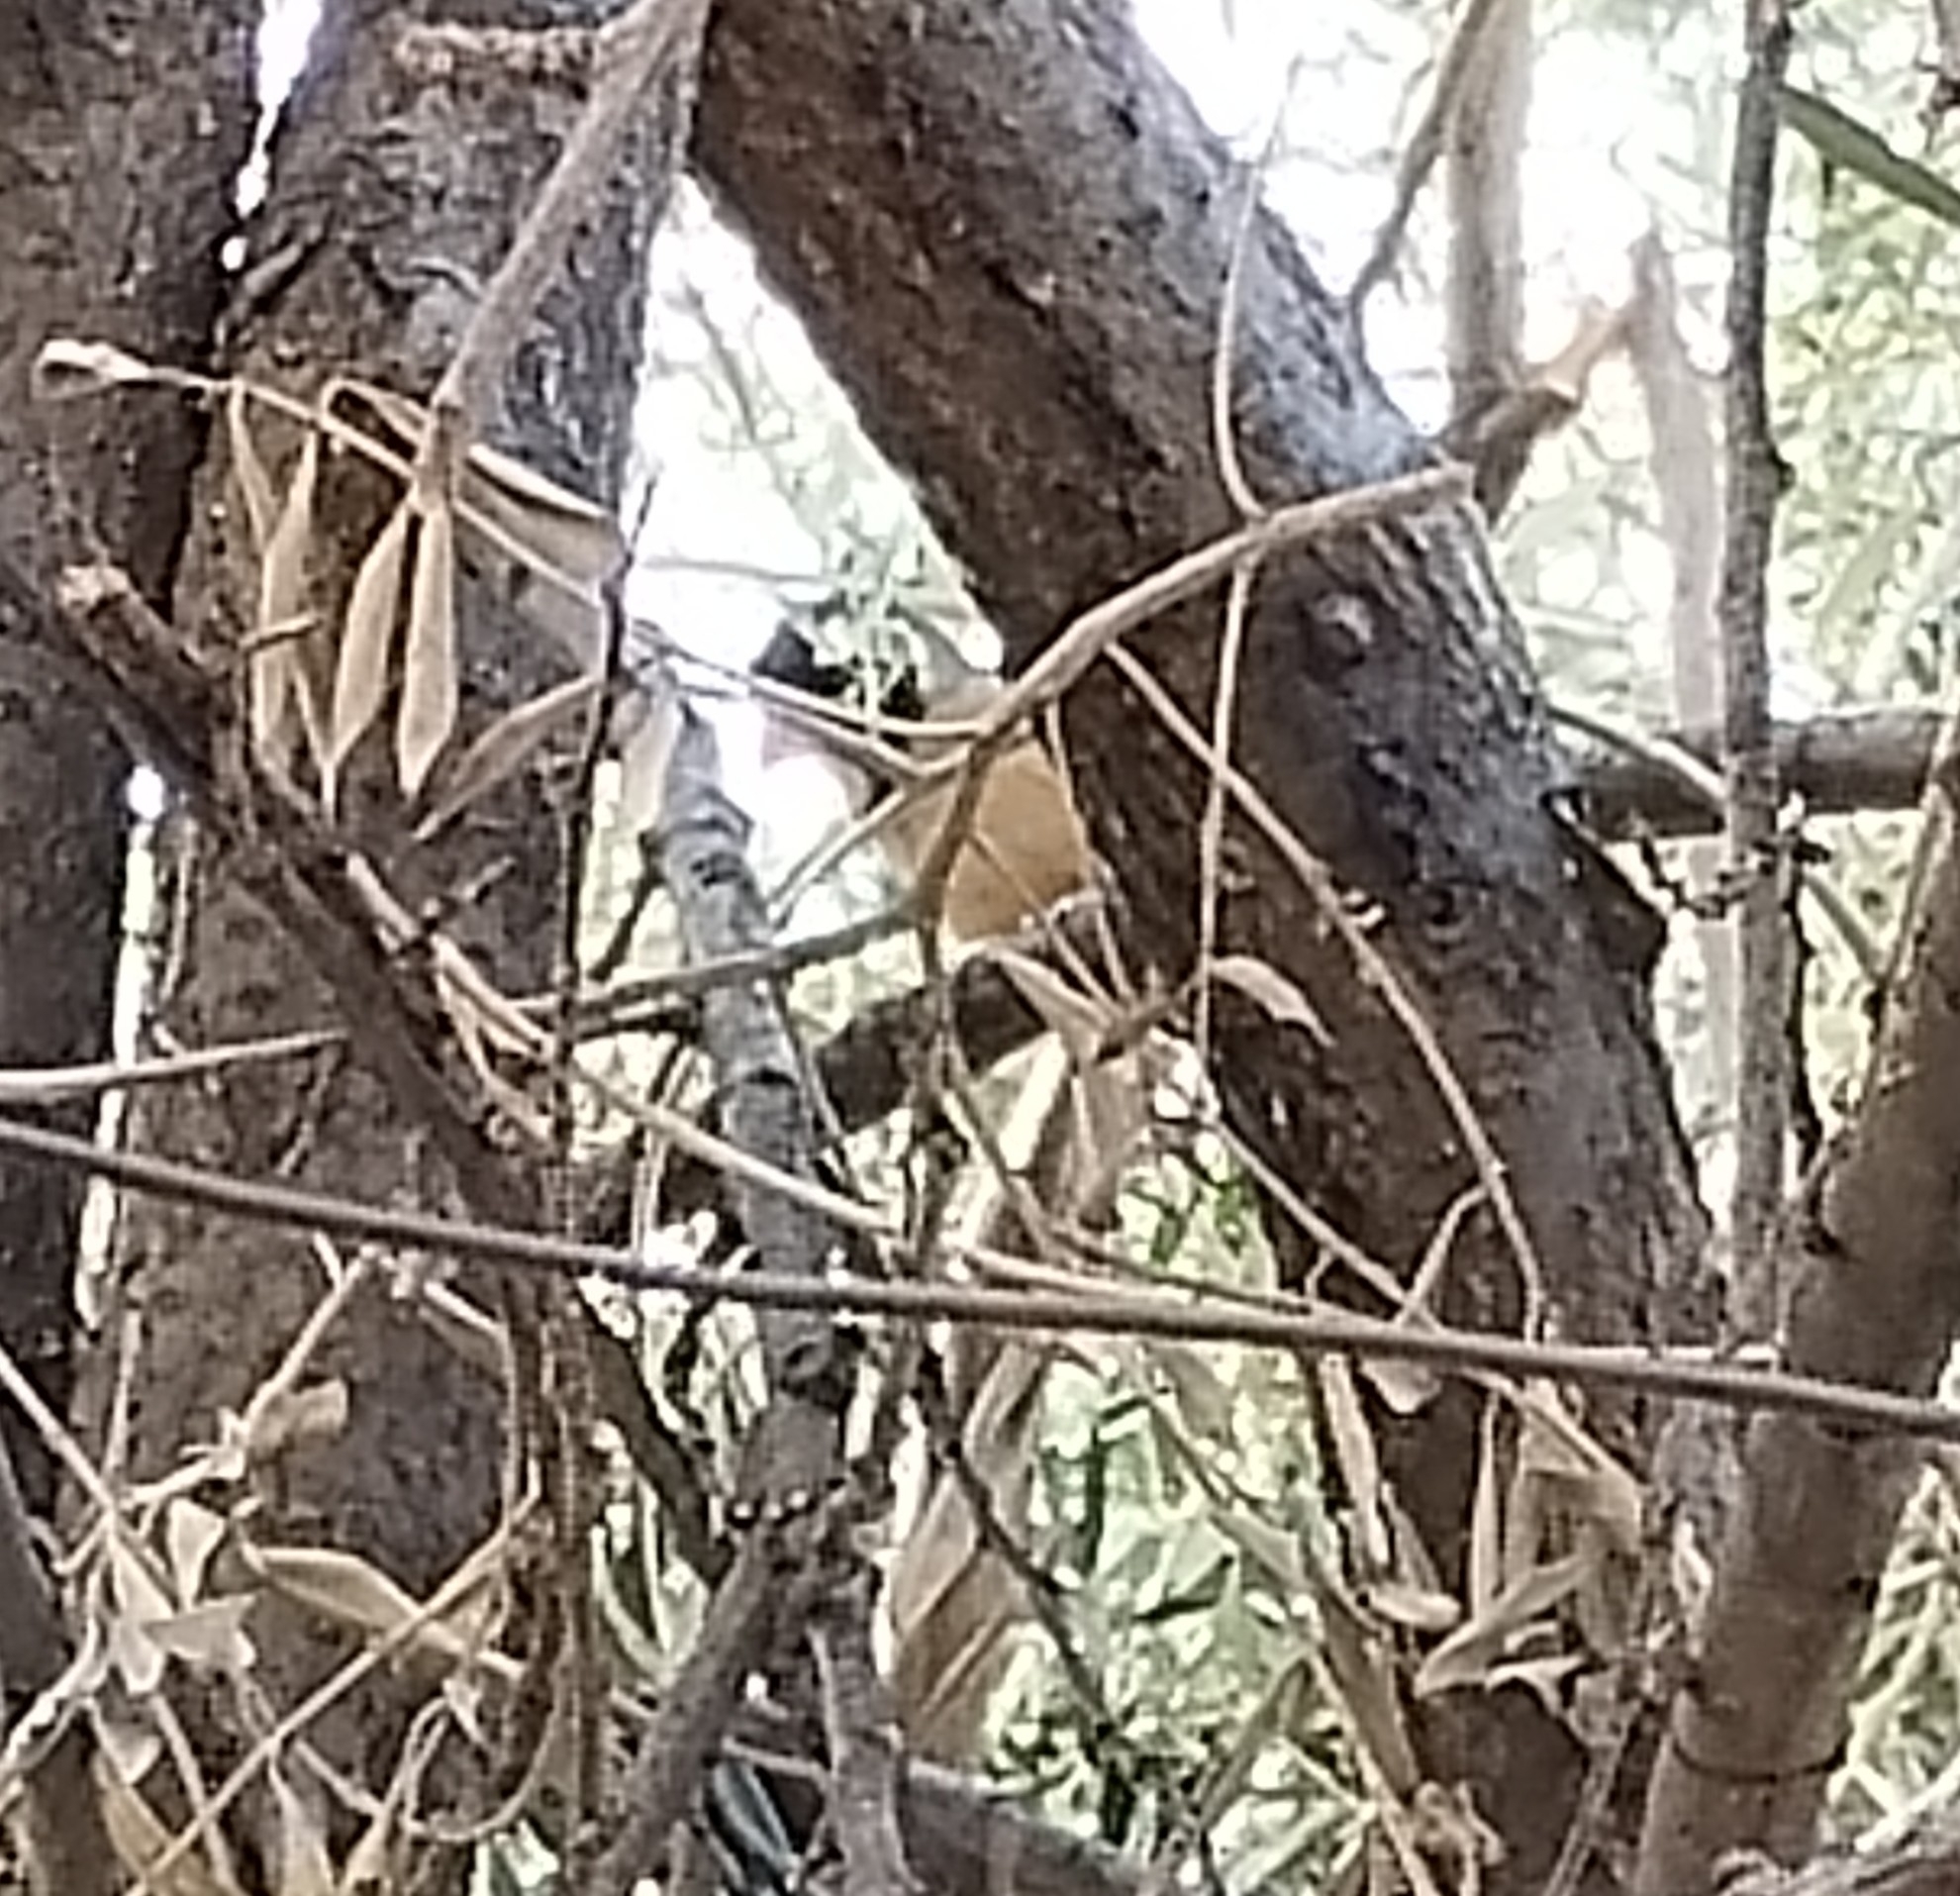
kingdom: Animalia
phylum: Chordata
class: Aves
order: Passeriformes
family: Thraupidae
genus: Saltator
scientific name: Saltator aurantiirostris
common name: Golden-billed saltator
